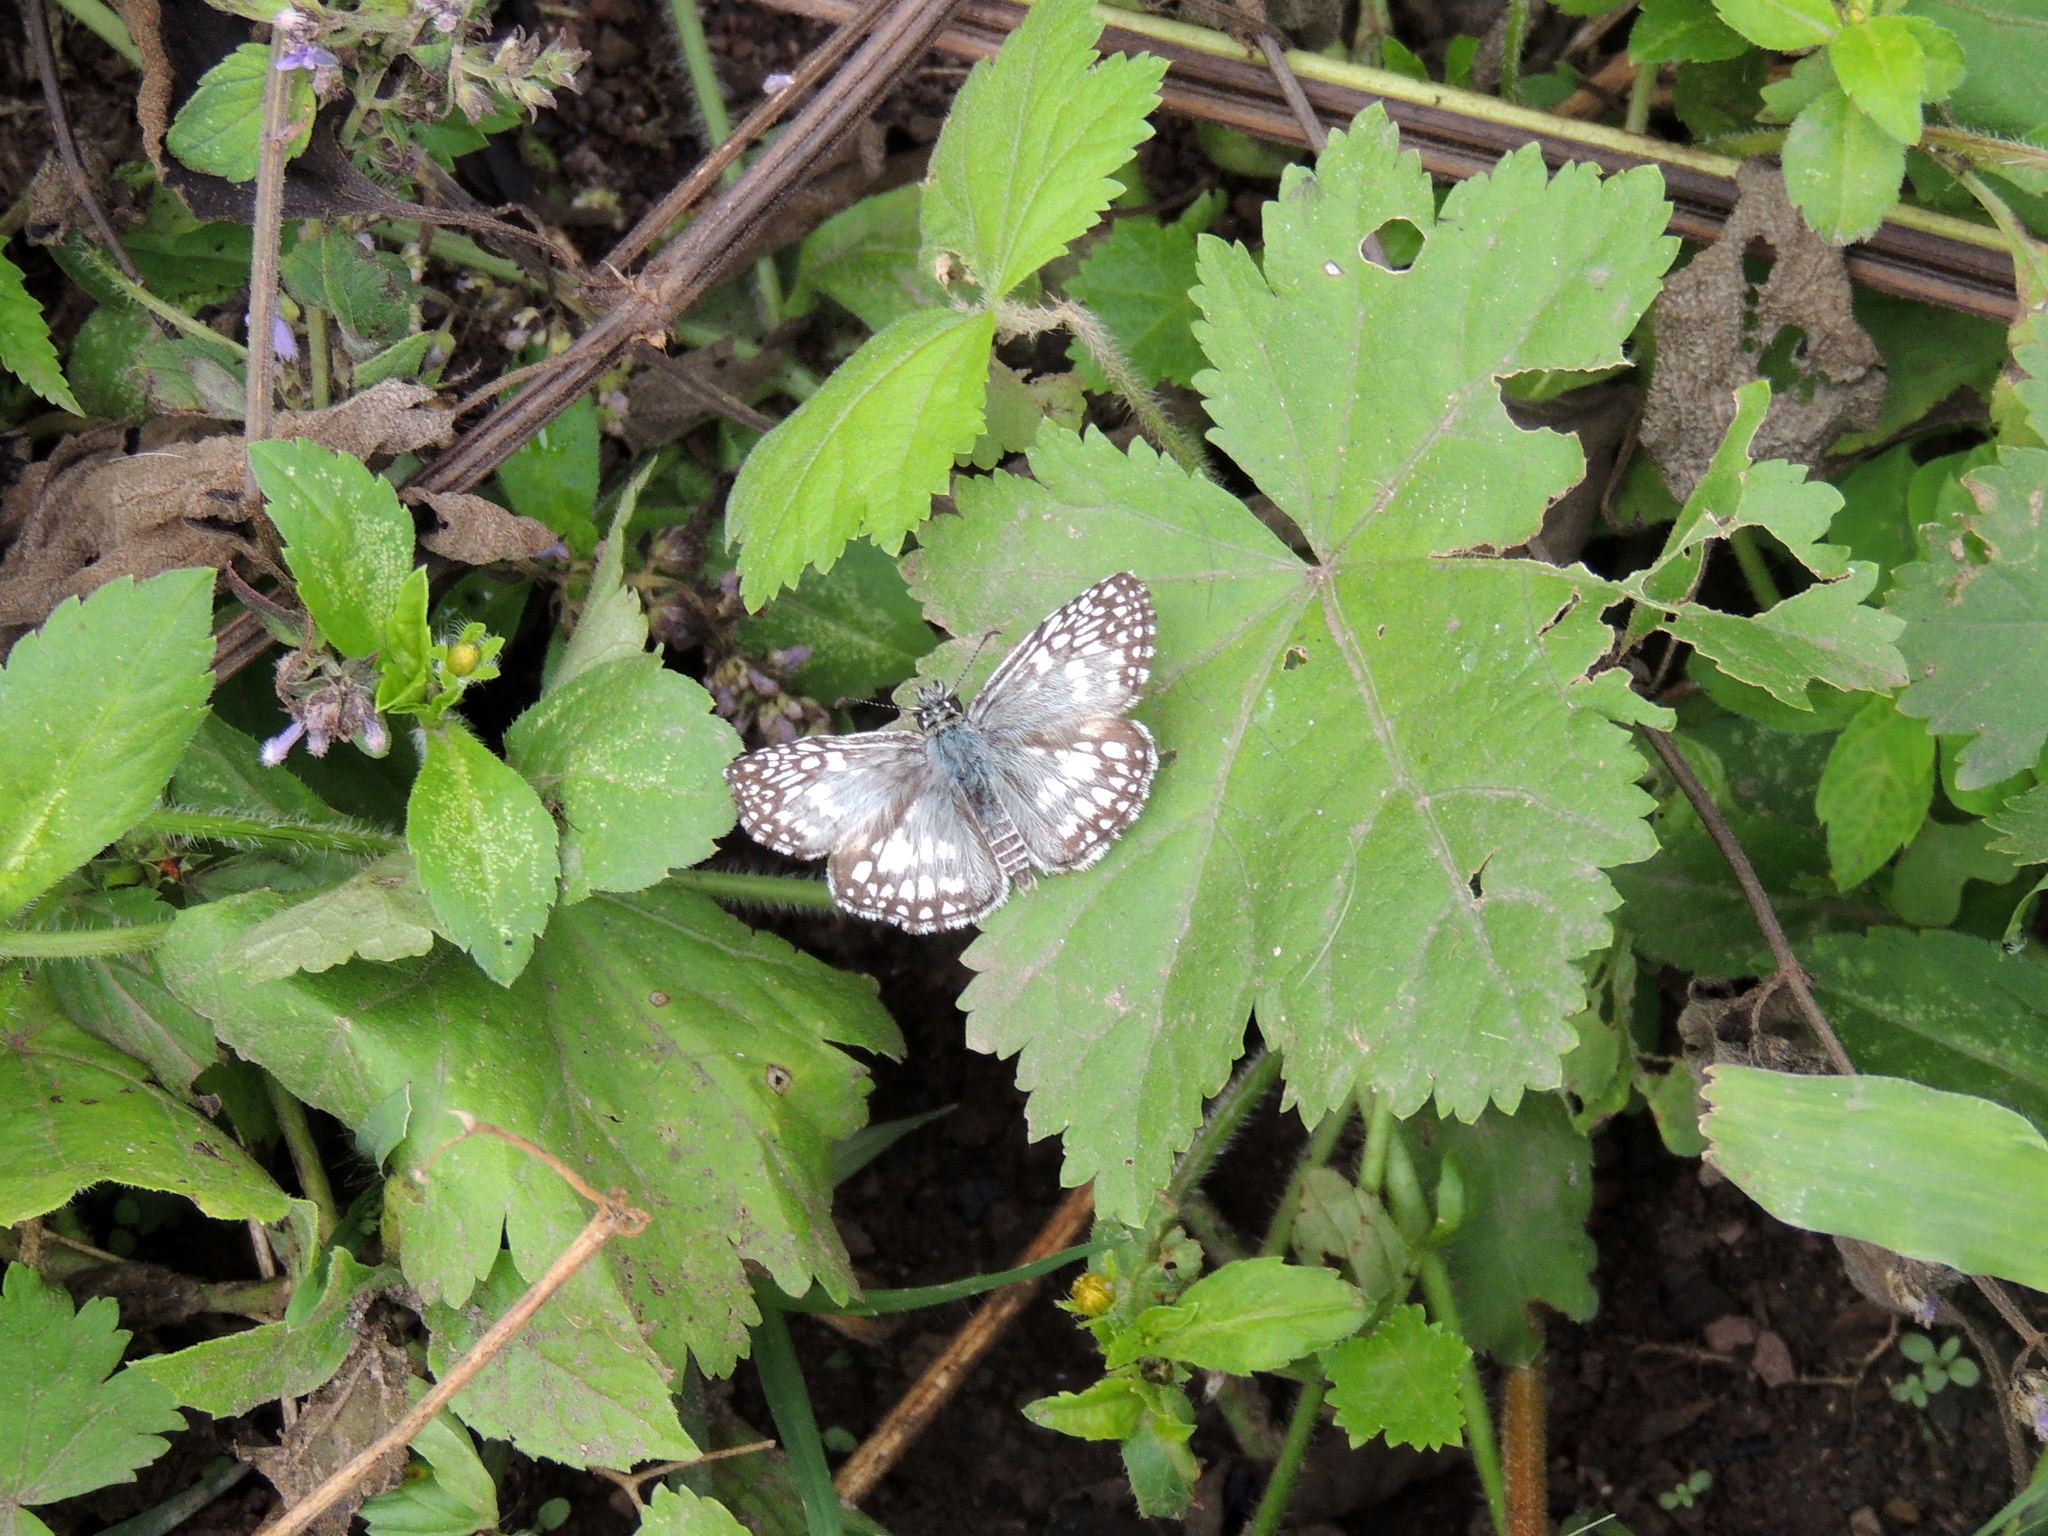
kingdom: Animalia
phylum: Arthropoda
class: Insecta
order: Lepidoptera
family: Hesperiidae
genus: Pyrgus
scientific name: Pyrgus oileus
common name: Tropical checkered-skipper
